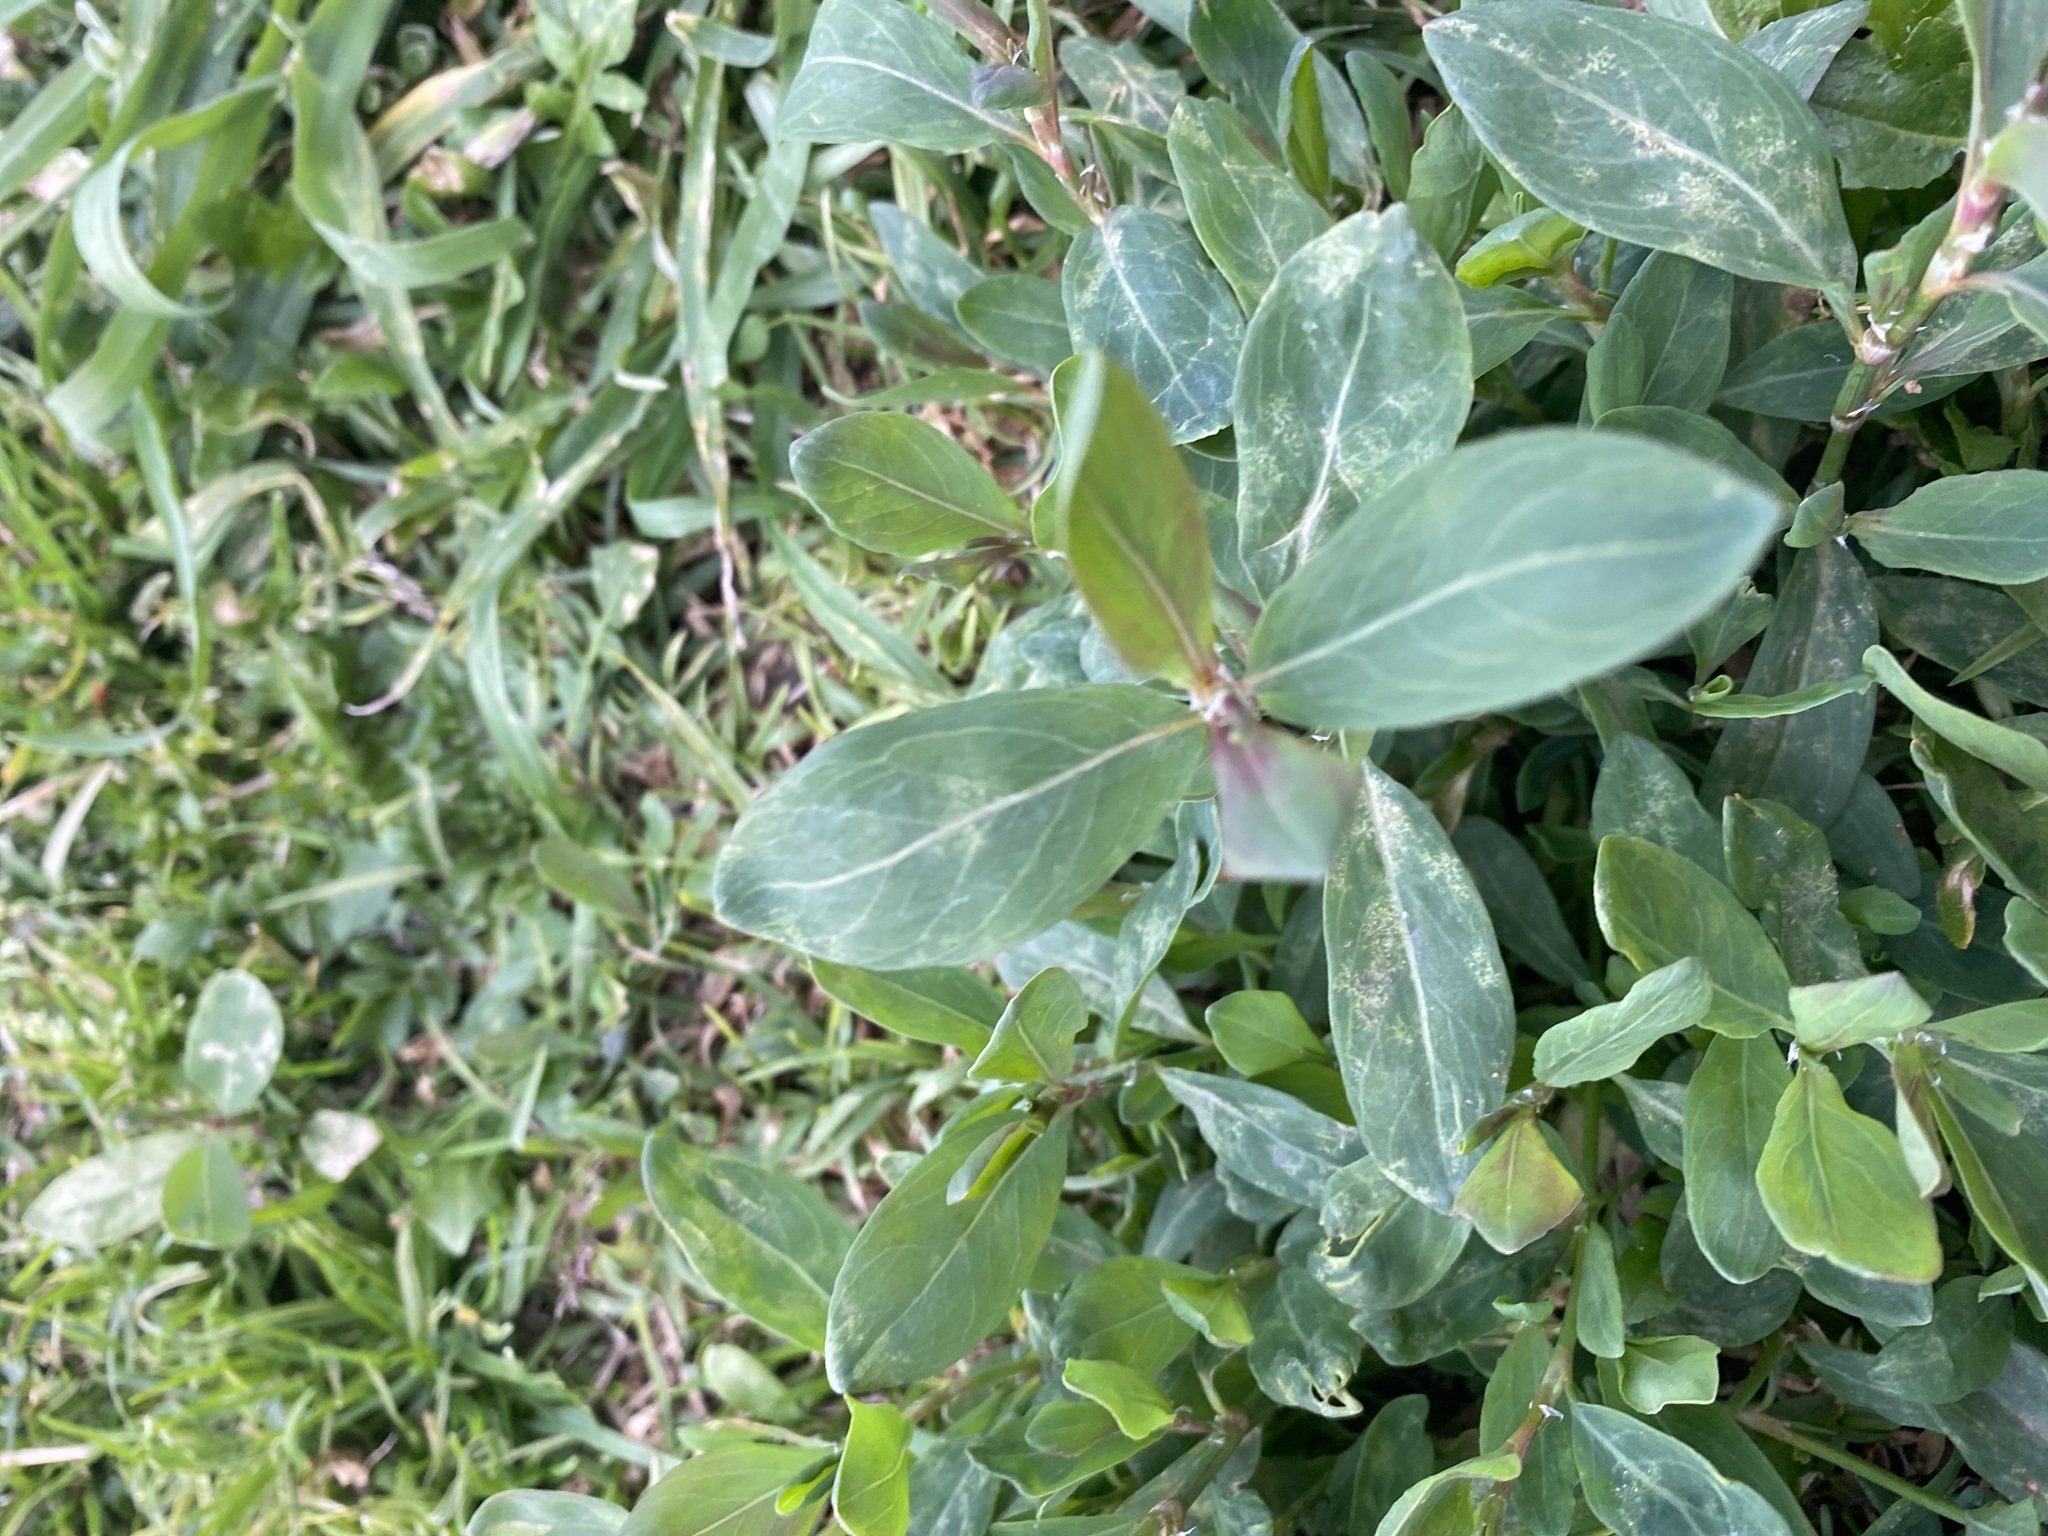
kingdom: Animalia
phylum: Arthropoda
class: Insecta
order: Hymenoptera
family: Formicidae
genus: Linepithema
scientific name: Linepithema humile
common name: Argentine ant
